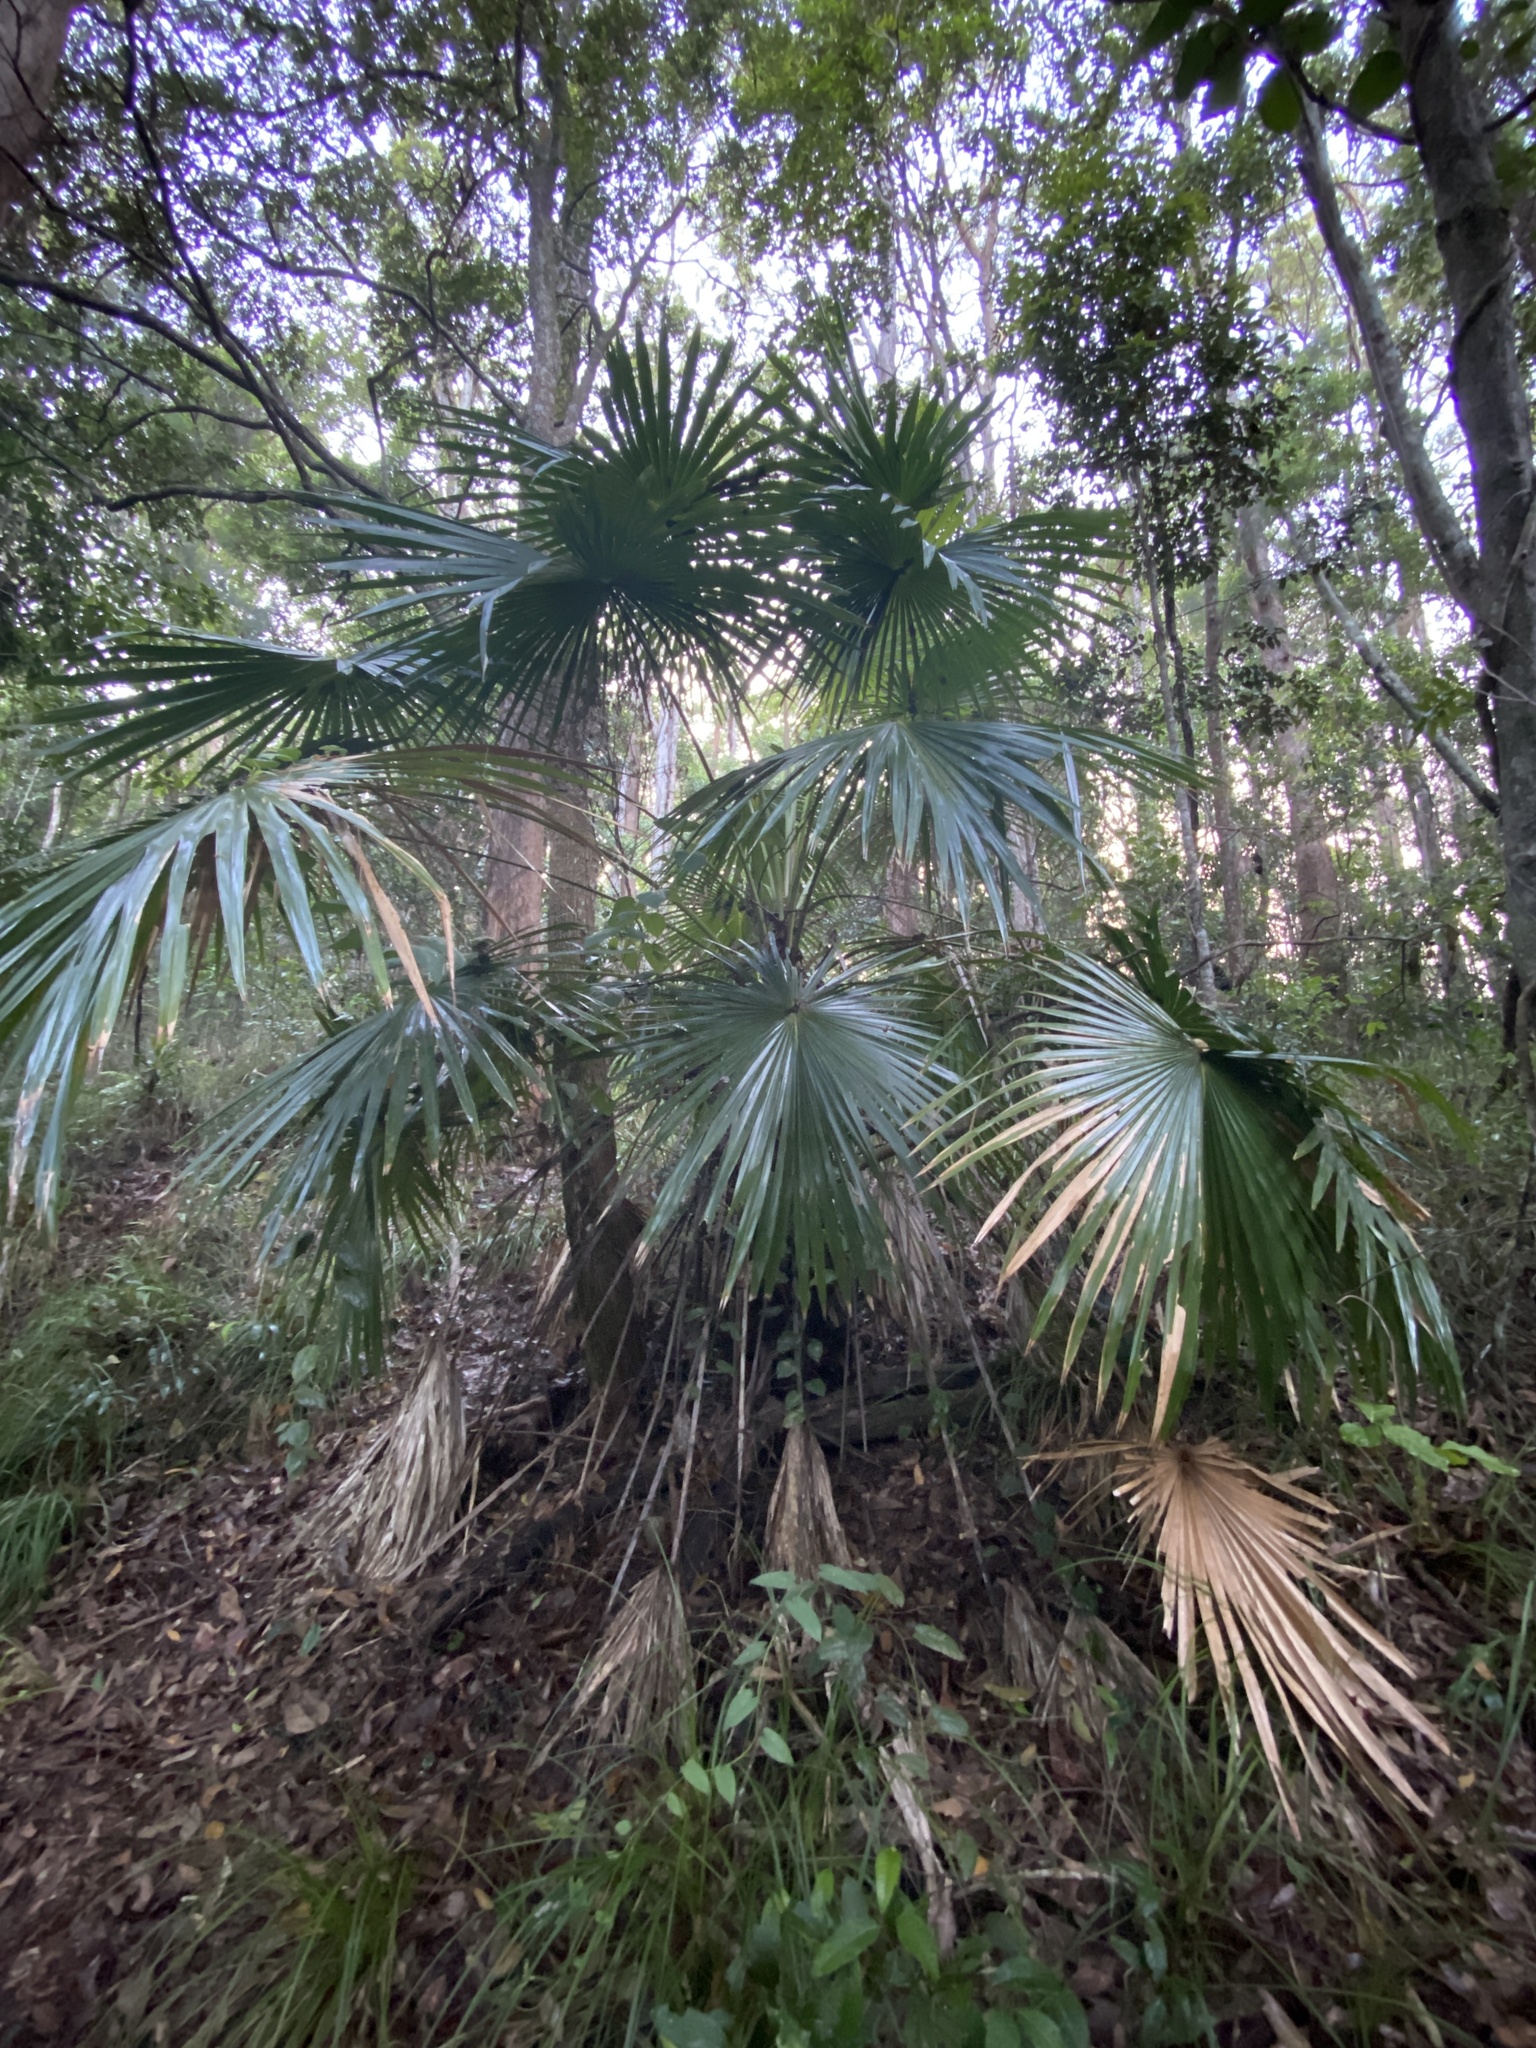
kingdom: Plantae
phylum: Tracheophyta
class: Liliopsida
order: Arecales
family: Arecaceae
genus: Livistona
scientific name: Livistona australis
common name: Cabbage fan palm
